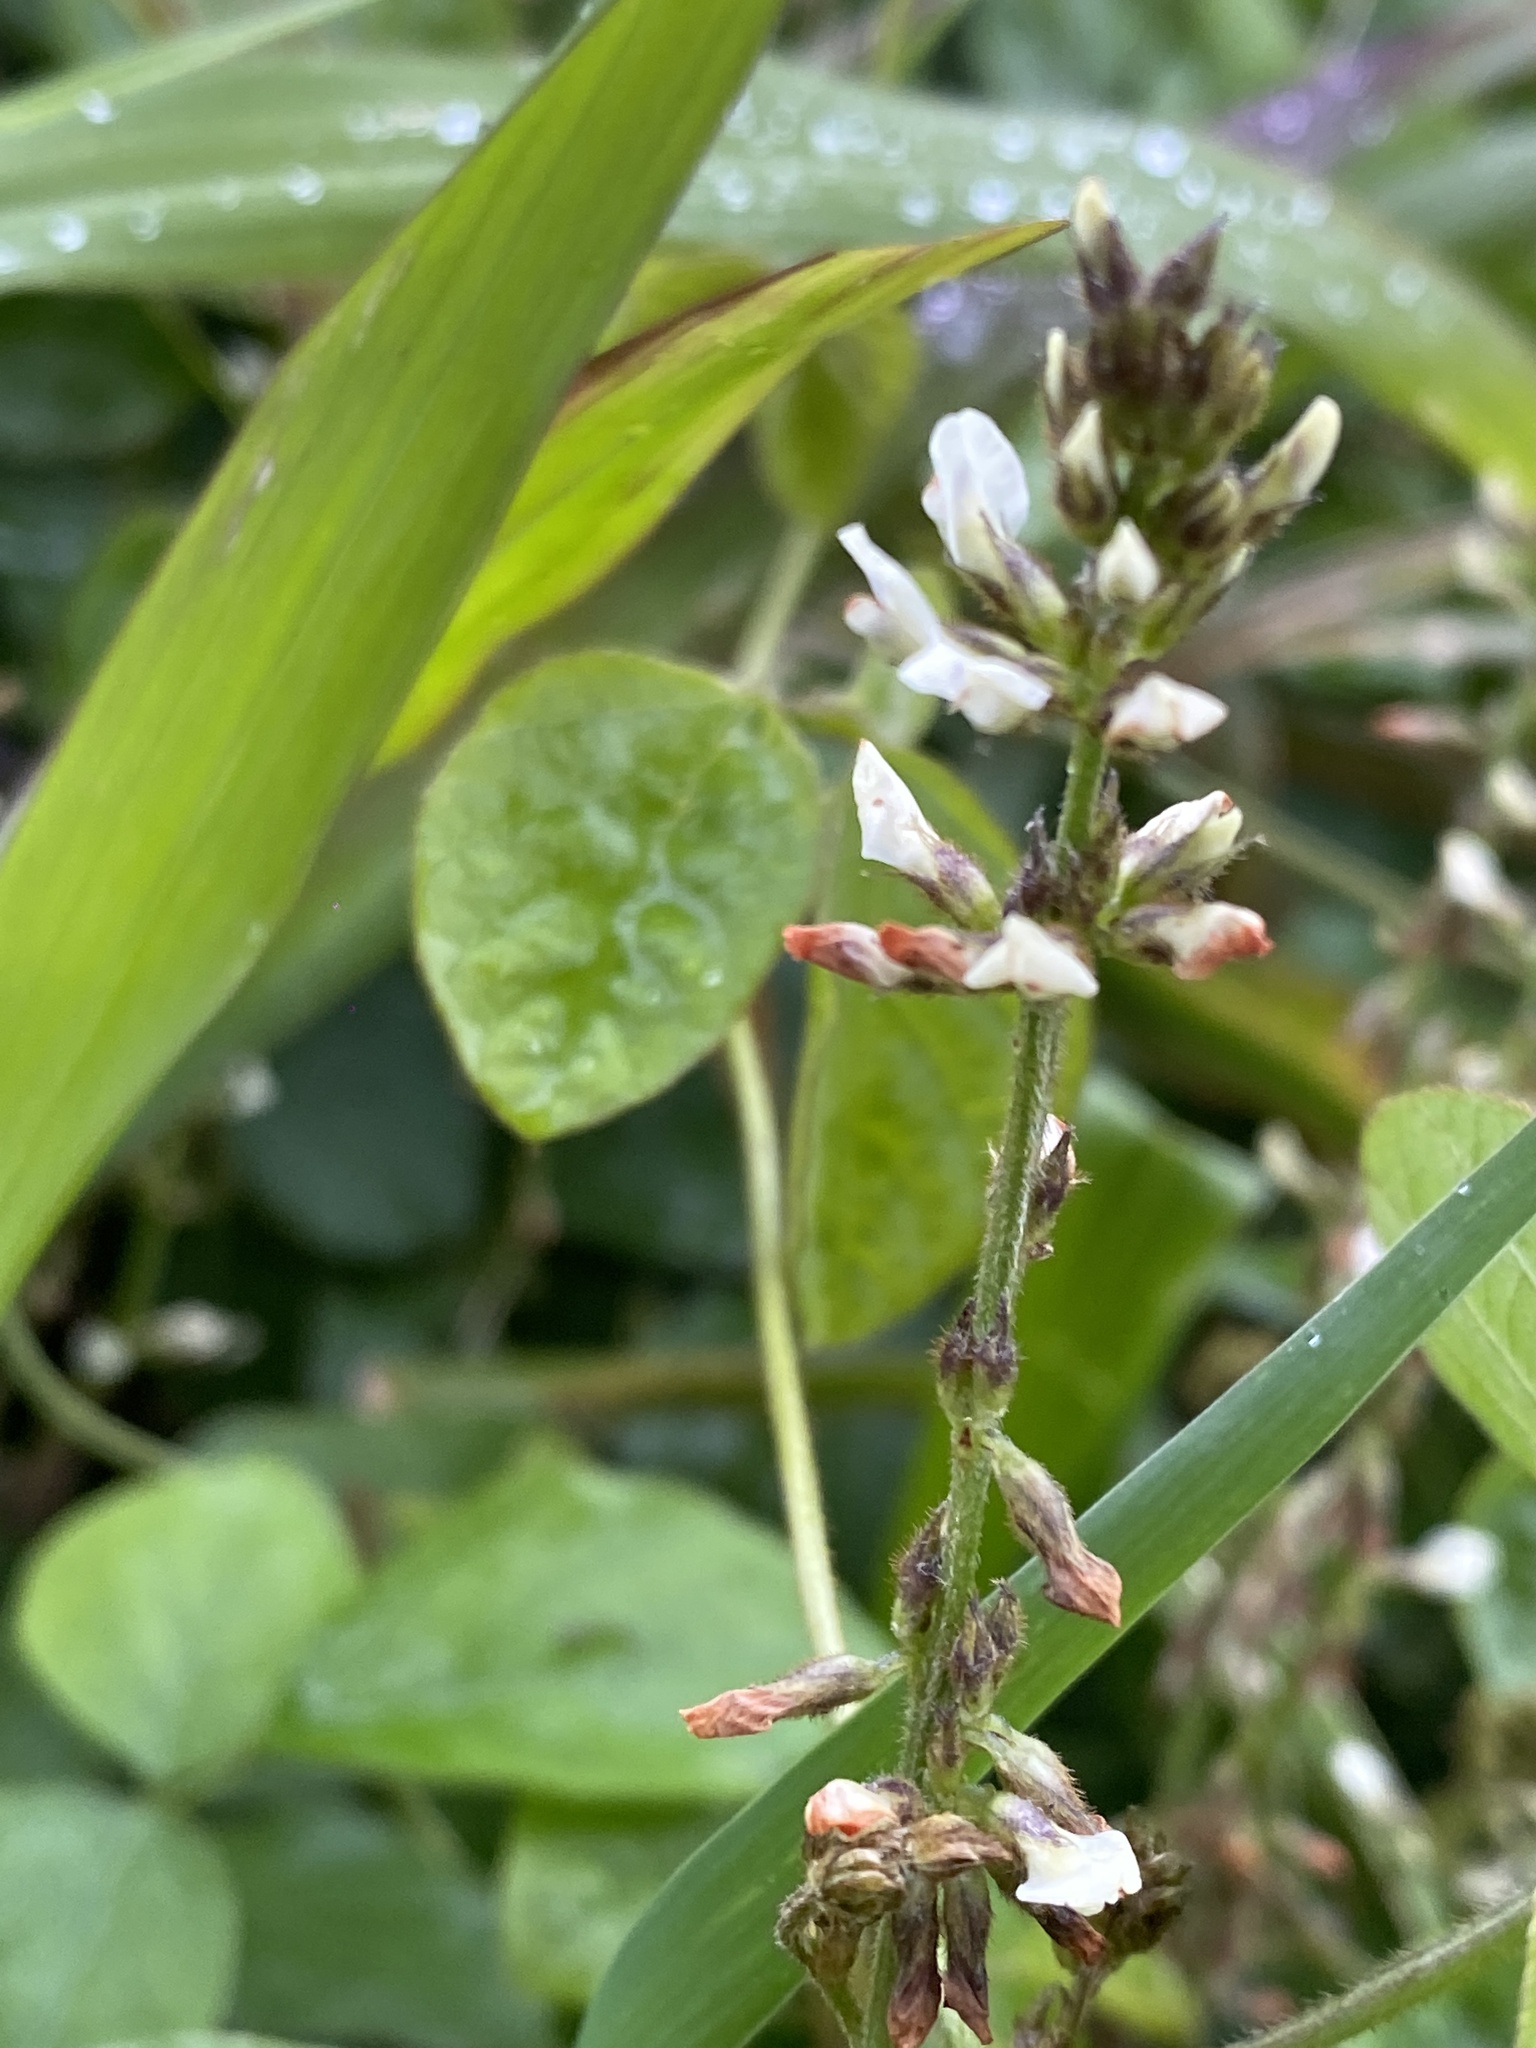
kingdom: Plantae
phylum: Tracheophyta
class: Magnoliopsida
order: Fabales
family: Fabaceae
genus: Neonotonia
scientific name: Neonotonia wightii
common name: Perennial soybean
